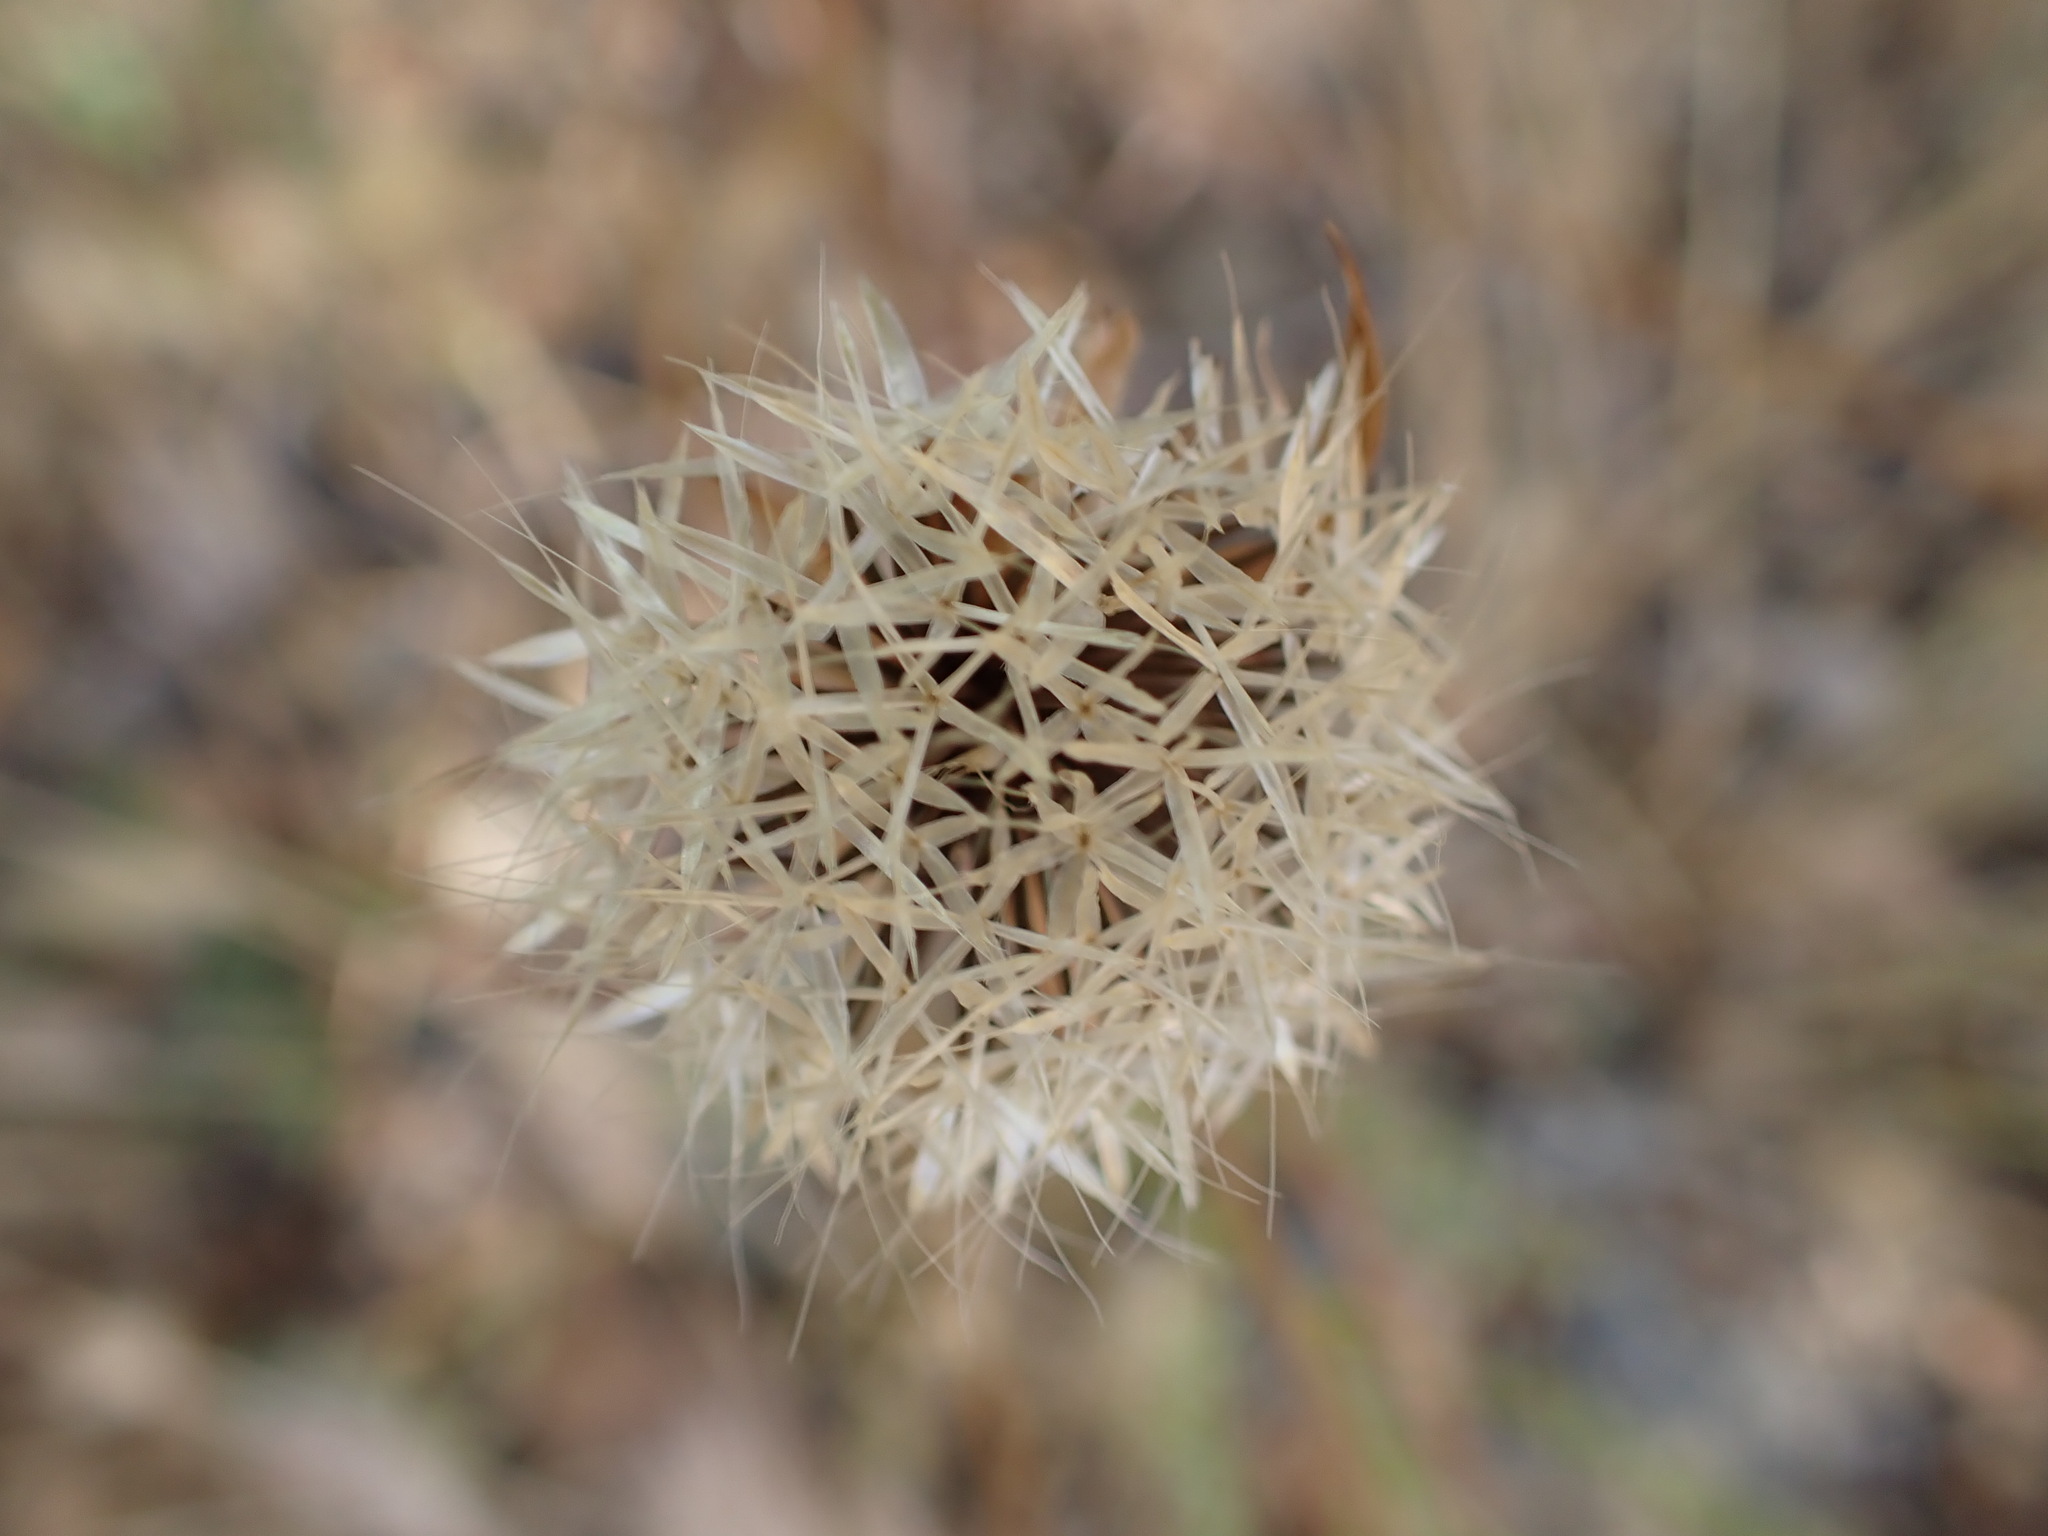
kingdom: Plantae
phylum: Tracheophyta
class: Magnoliopsida
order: Asterales
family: Asteraceae
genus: Microseris
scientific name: Microseris lindleyi
